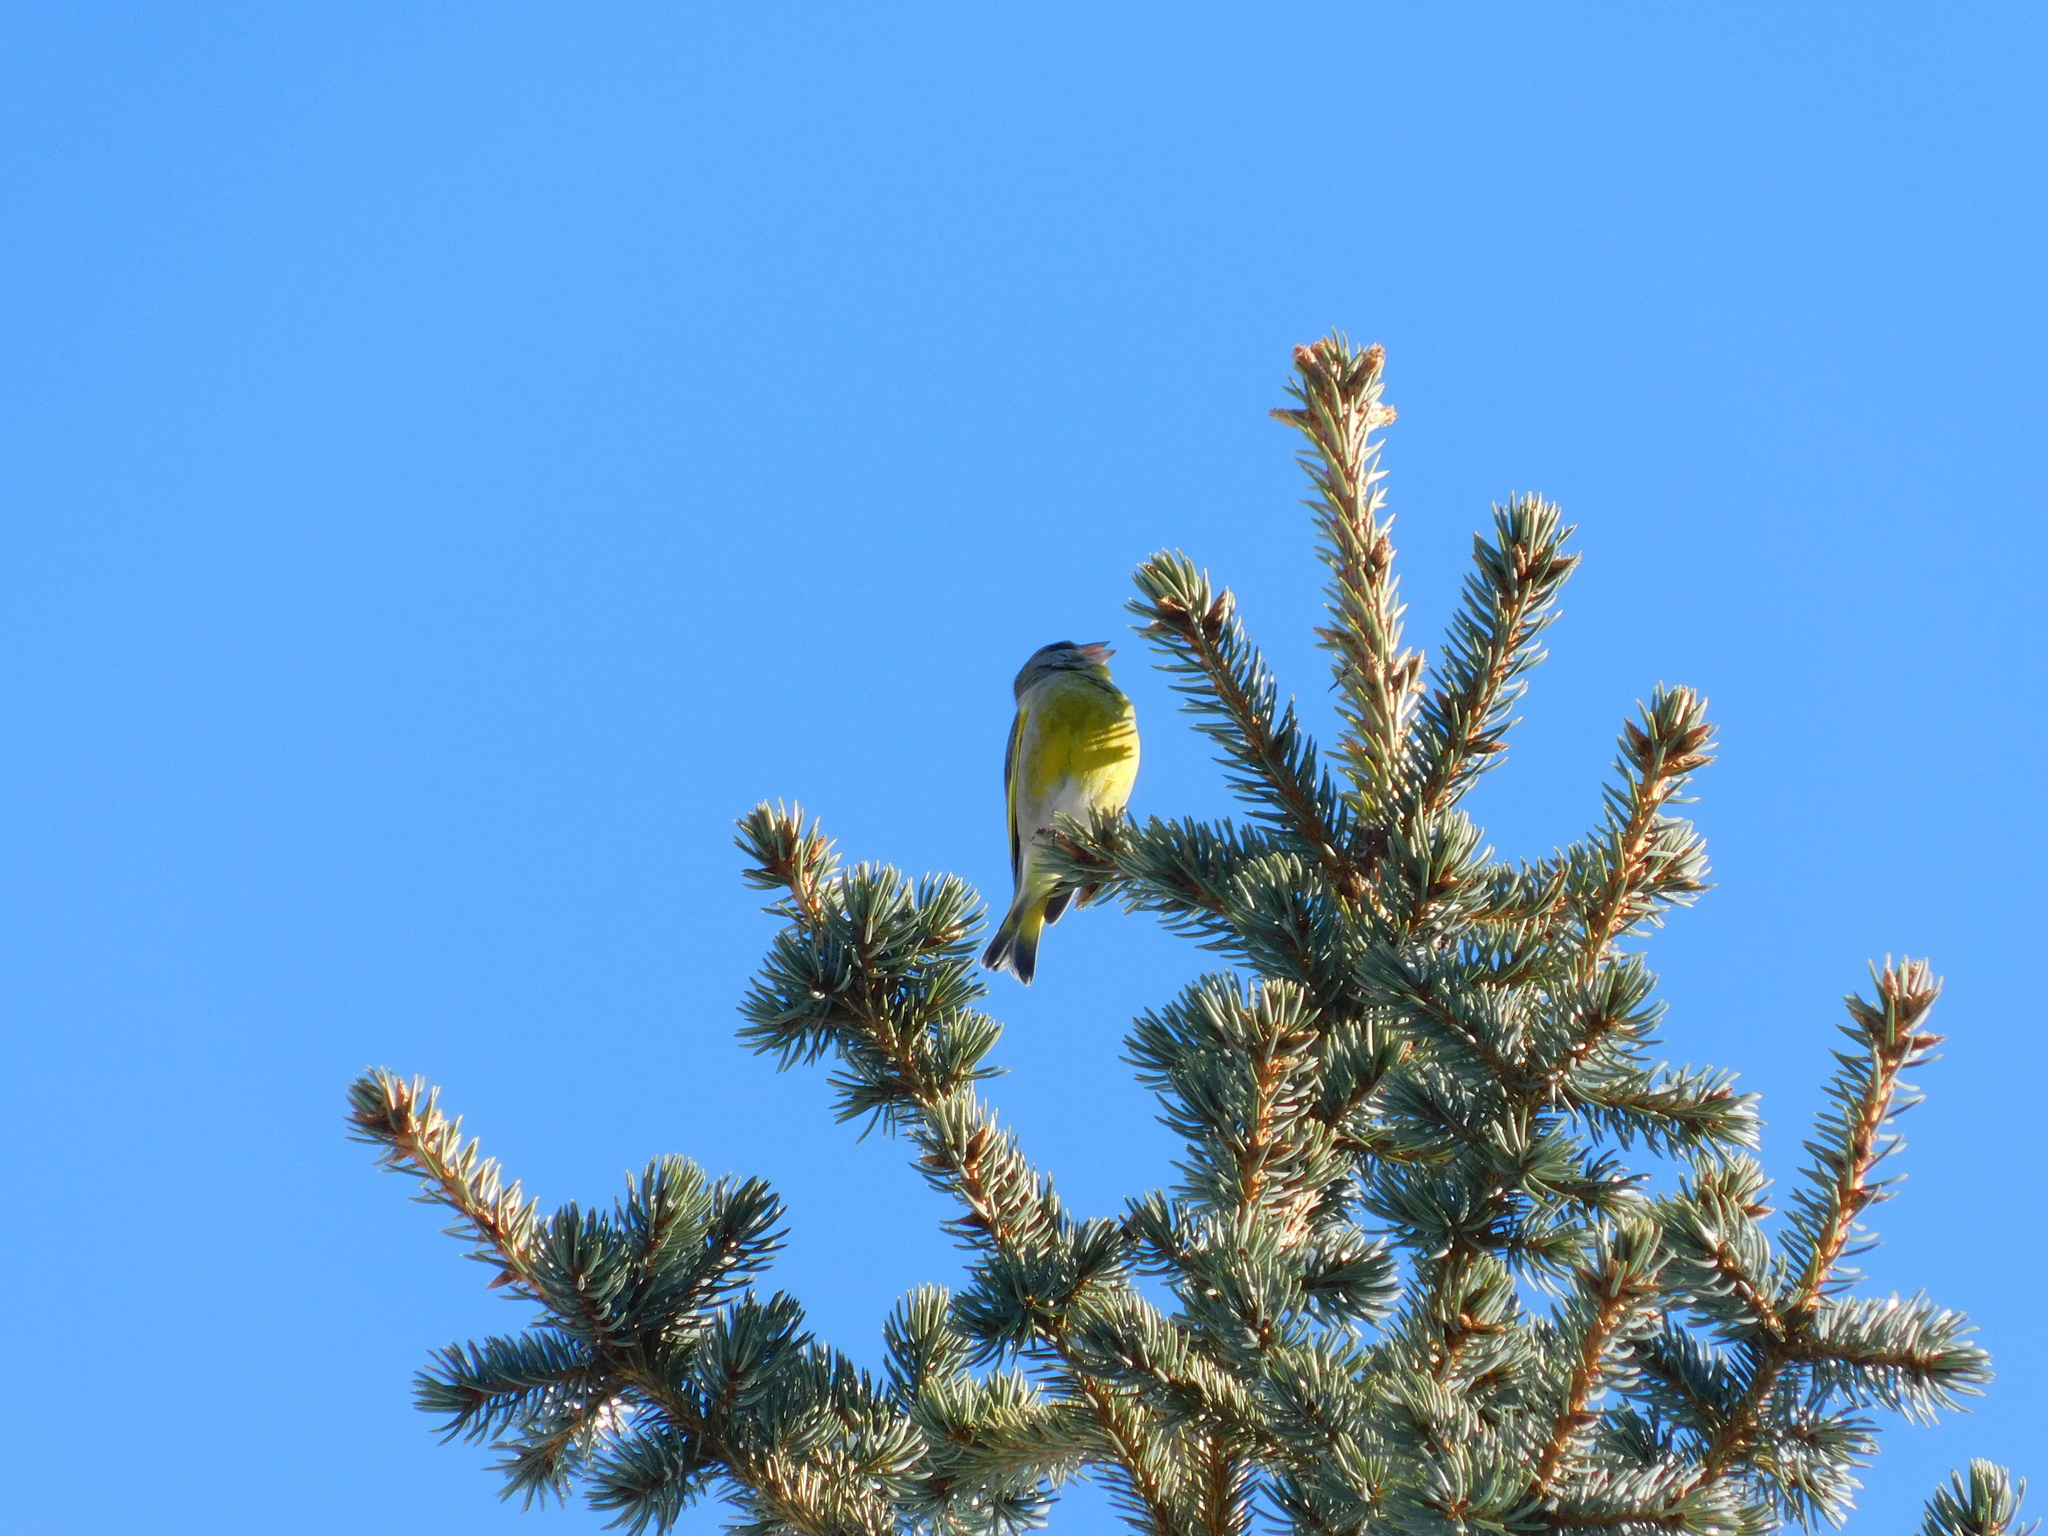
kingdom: Plantae
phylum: Tracheophyta
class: Liliopsida
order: Poales
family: Poaceae
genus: Chloris
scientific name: Chloris chloris
